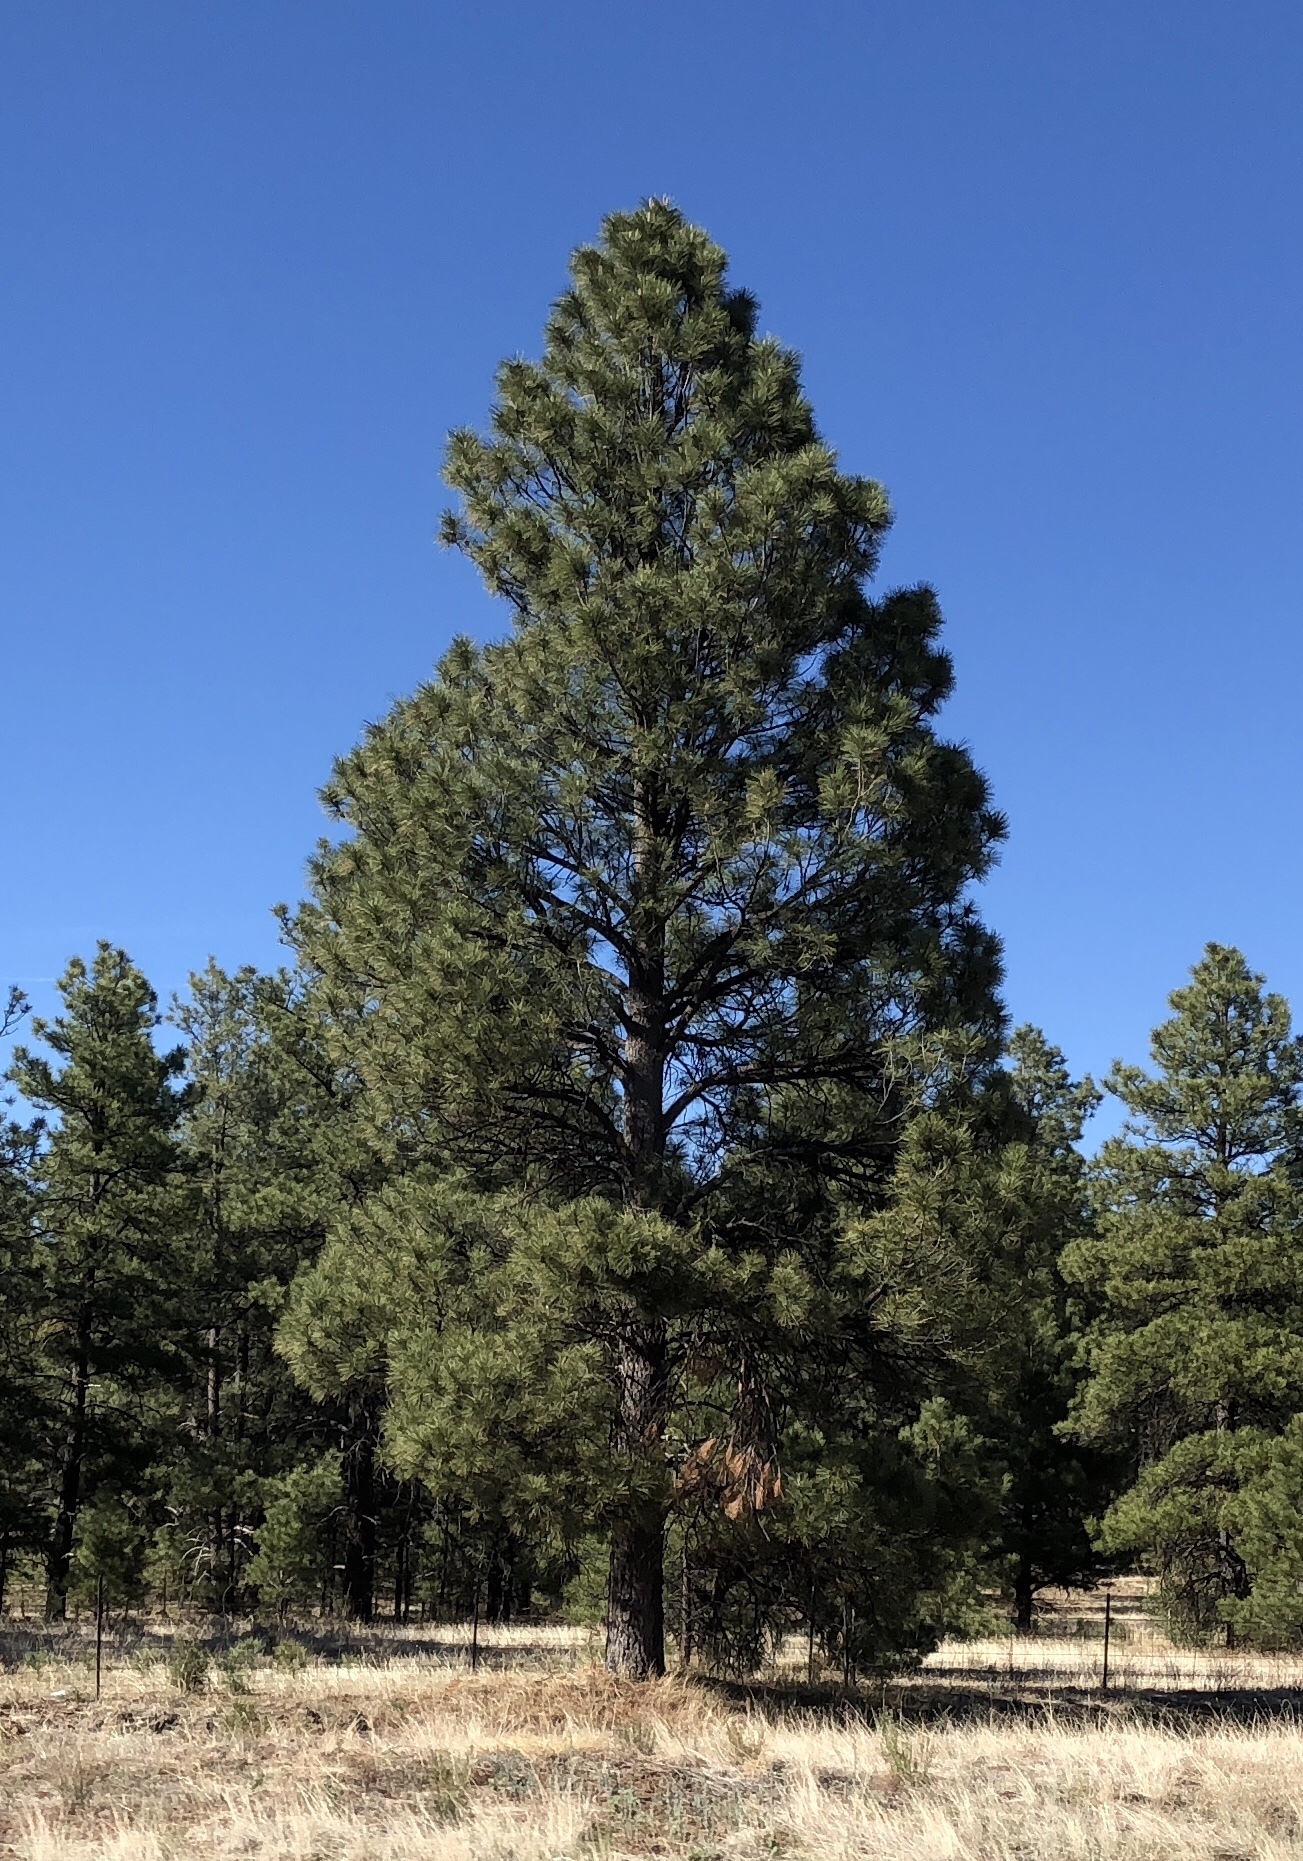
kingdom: Plantae
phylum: Tracheophyta
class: Pinopsida
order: Pinales
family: Pinaceae
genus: Pinus
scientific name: Pinus ponderosa
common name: Western yellow-pine
